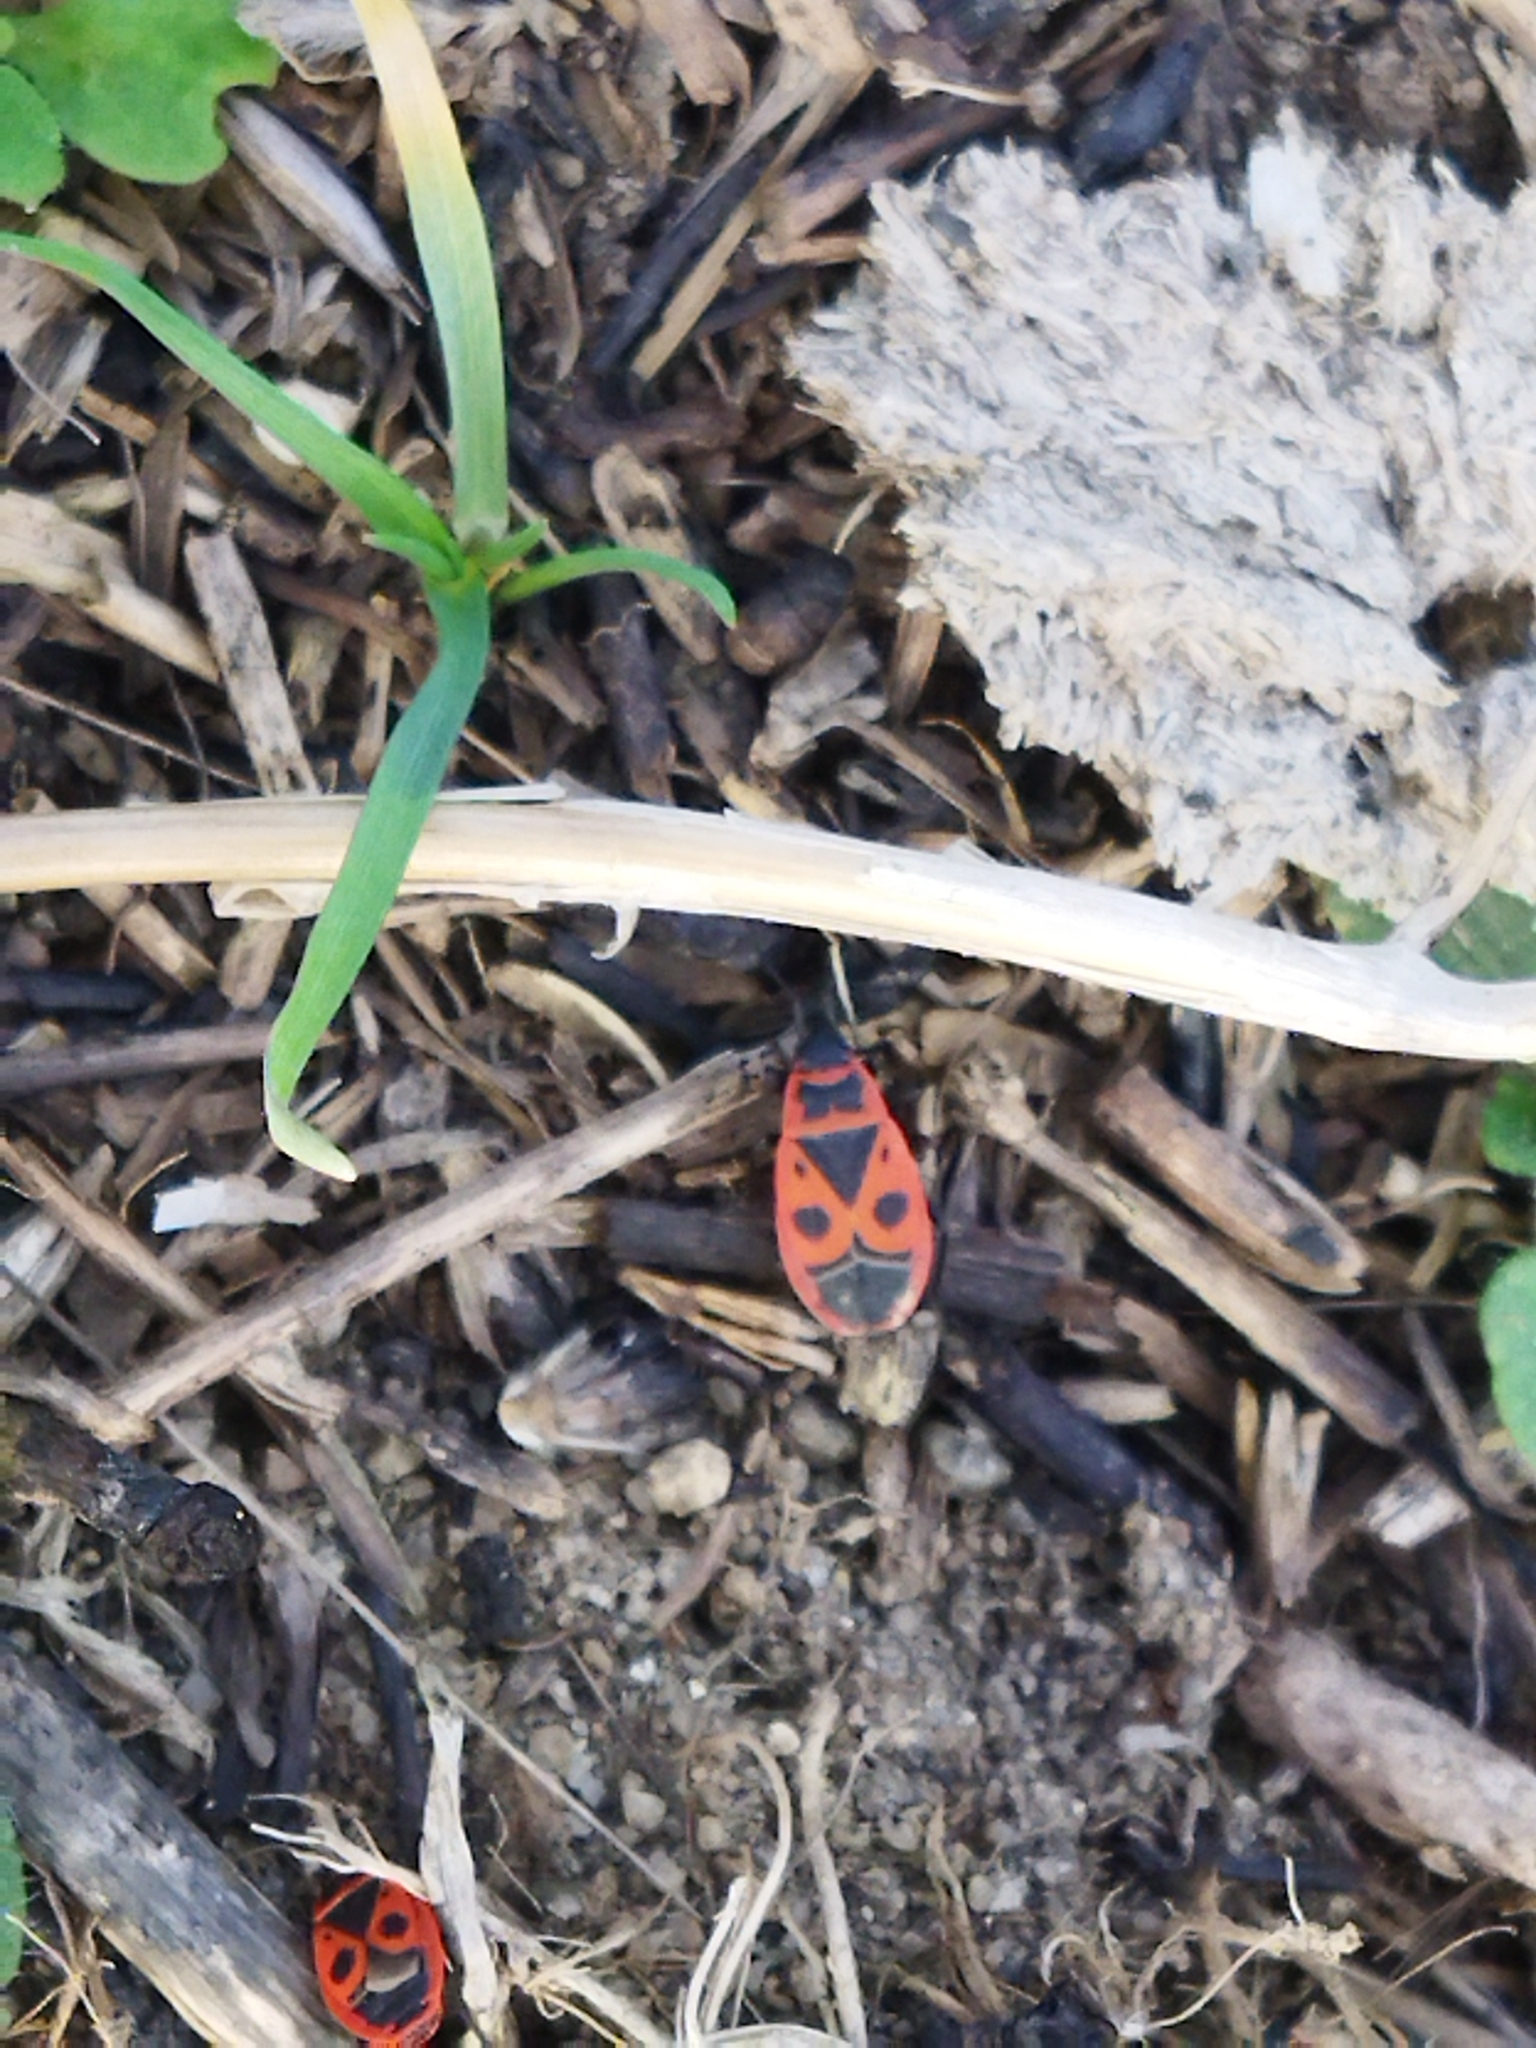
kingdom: Animalia
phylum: Arthropoda
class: Insecta
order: Hemiptera
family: Pyrrhocoridae
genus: Pyrrhocoris
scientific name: Pyrrhocoris apterus
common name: Firebug
